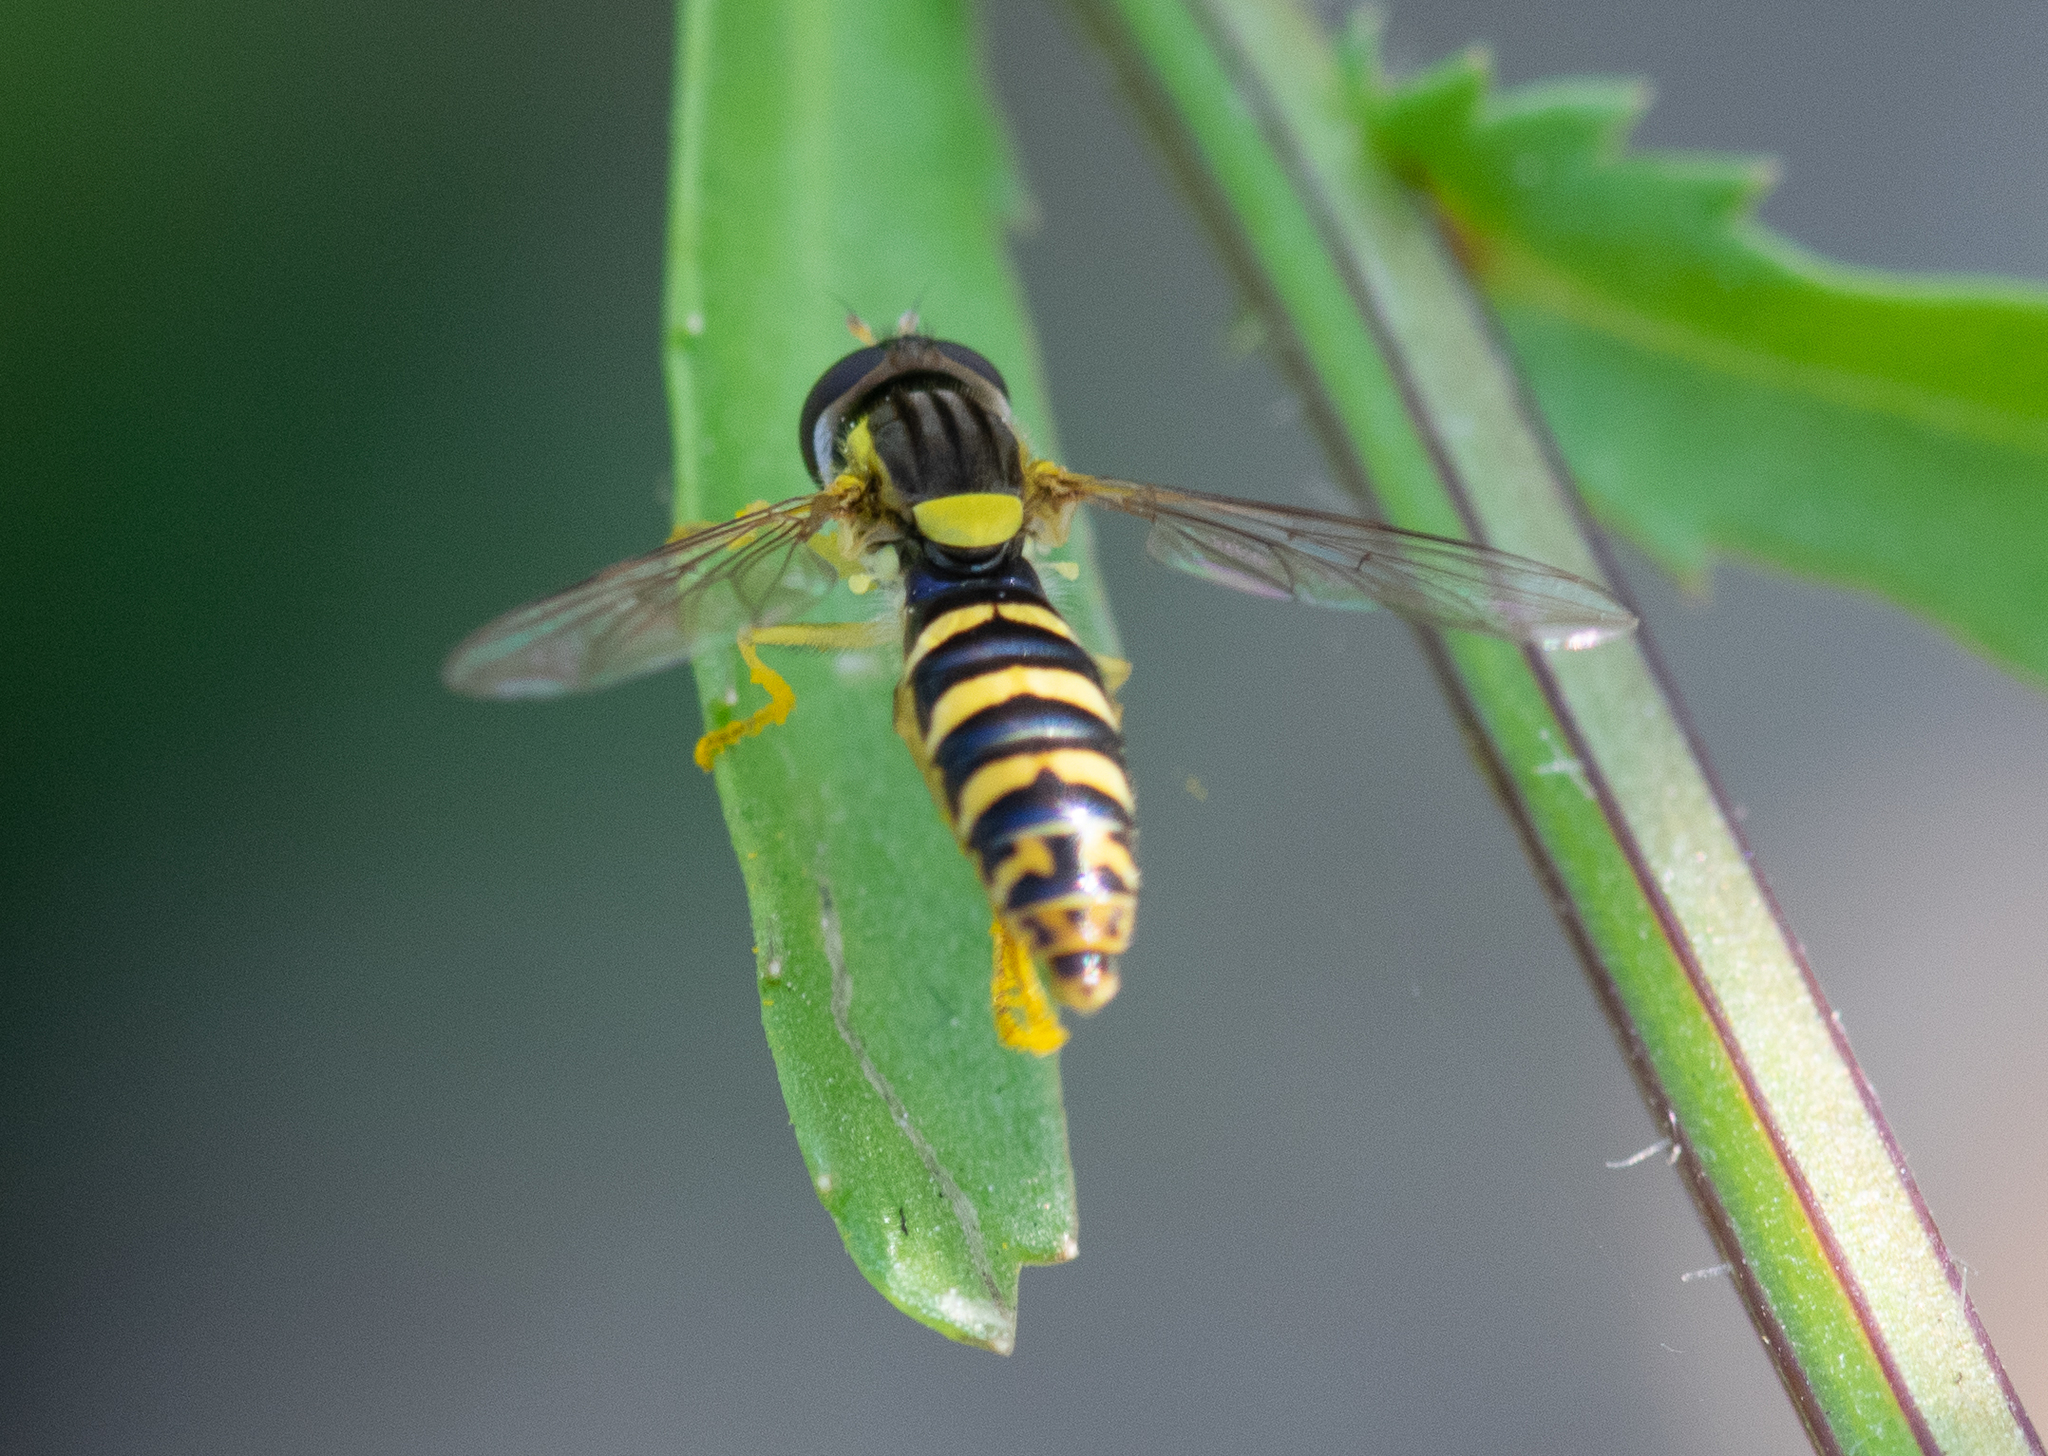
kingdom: Animalia
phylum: Arthropoda
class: Insecta
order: Diptera
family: Syrphidae
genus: Sphaerophoria
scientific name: Sphaerophoria
